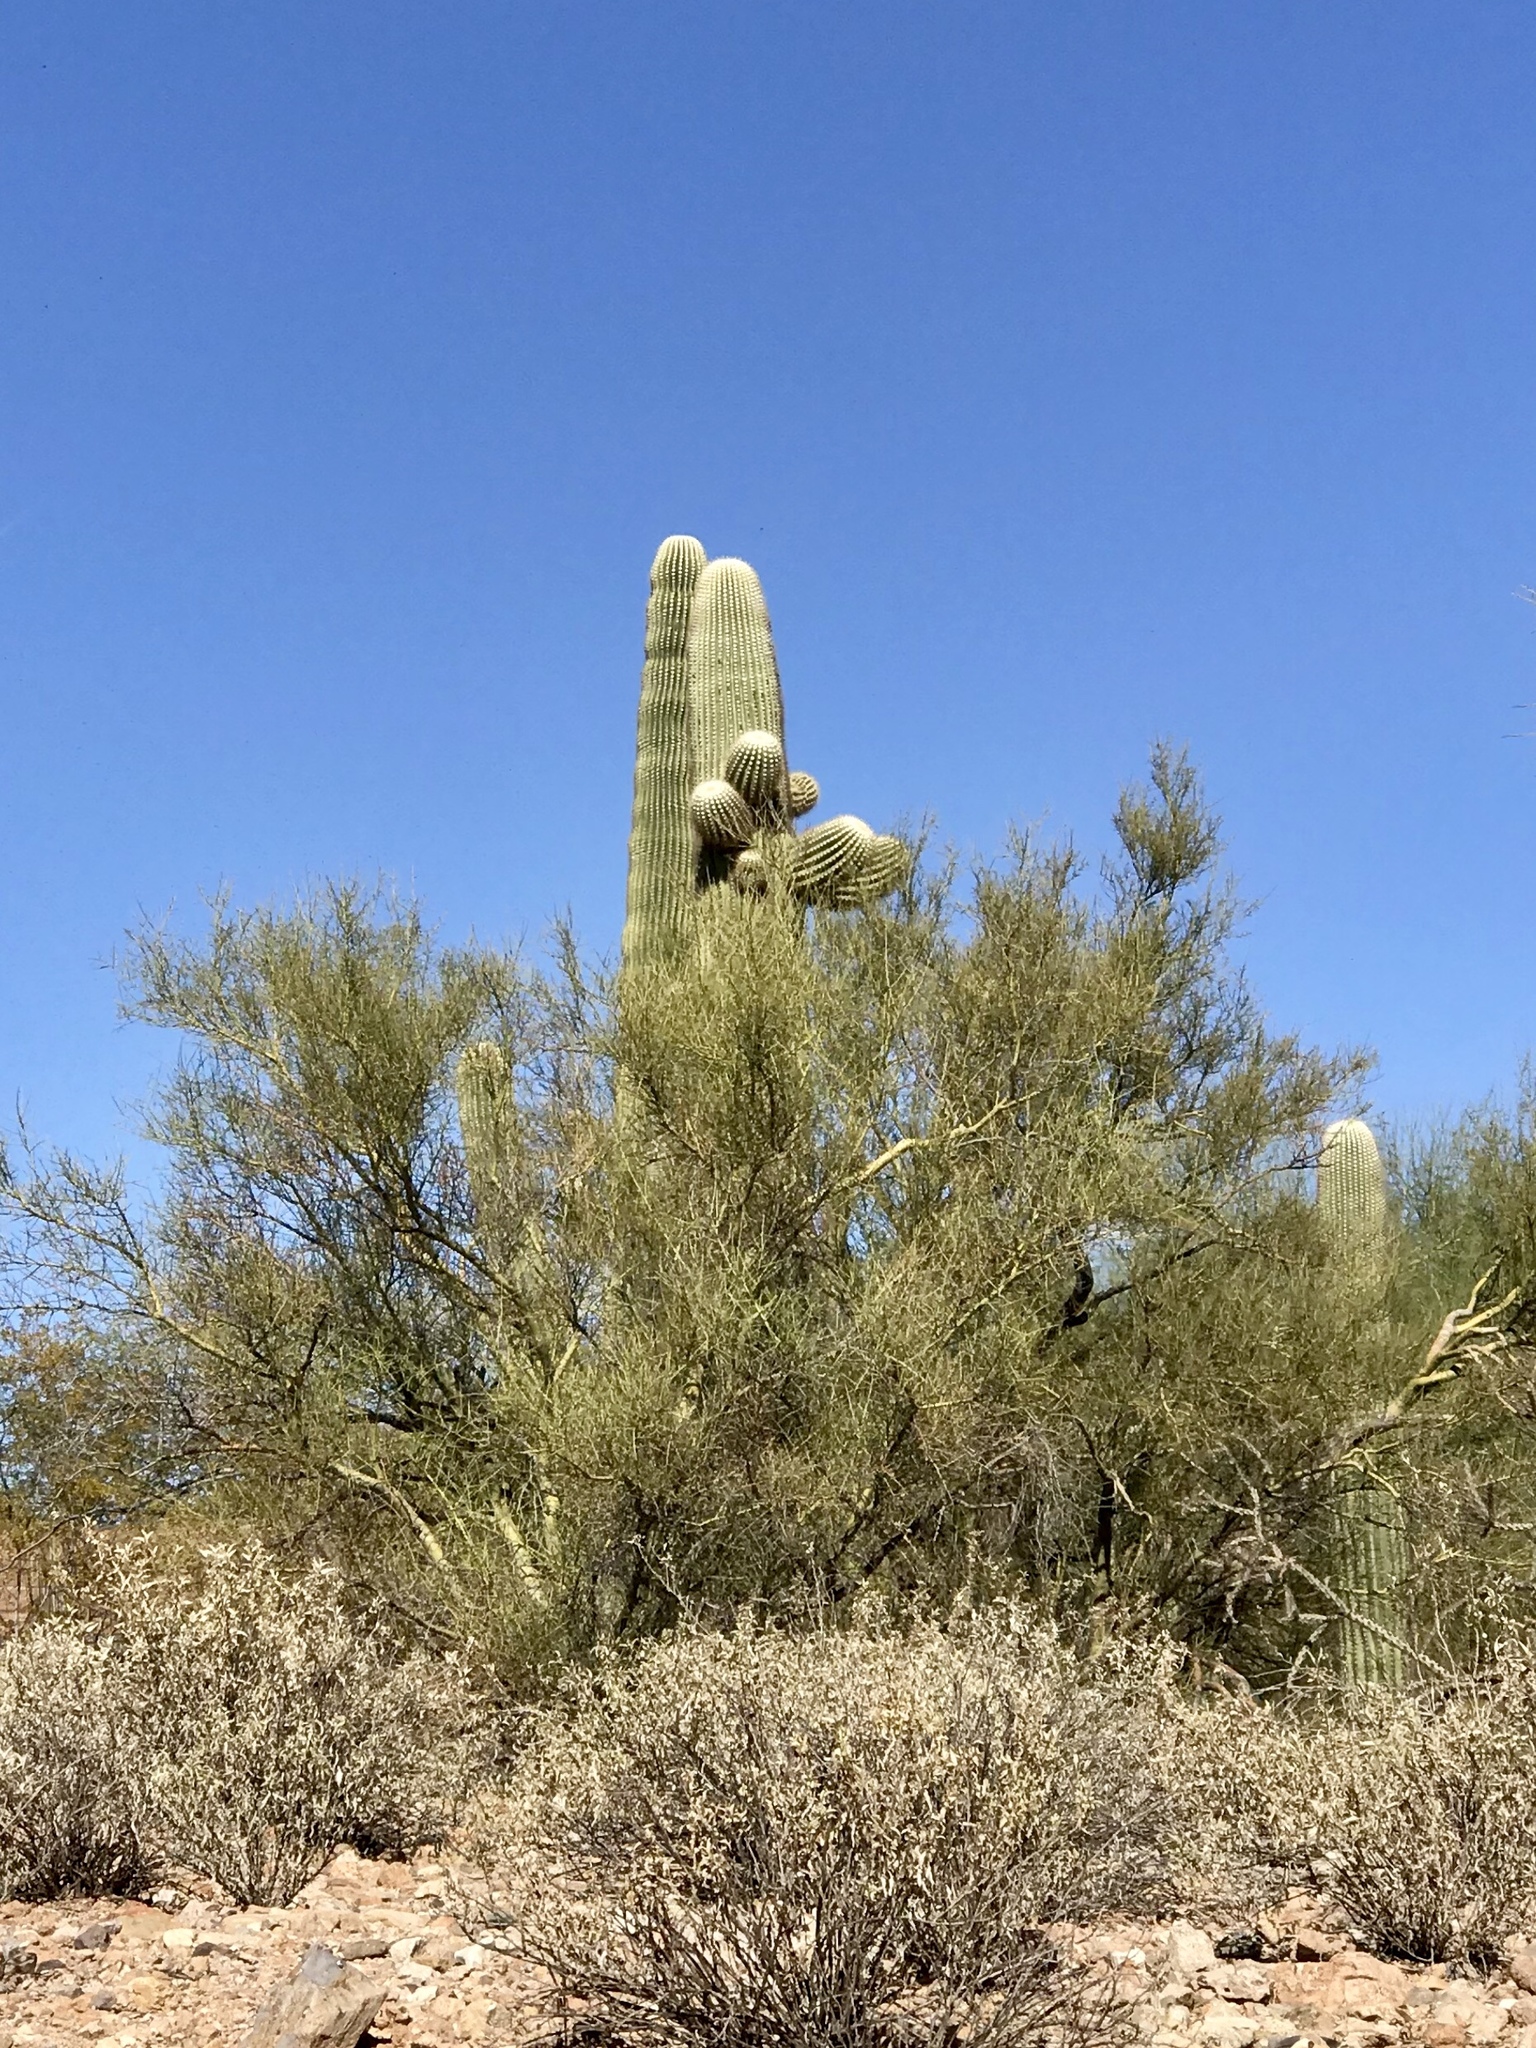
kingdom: Plantae
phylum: Tracheophyta
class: Magnoliopsida
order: Fabales
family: Fabaceae
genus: Parkinsonia
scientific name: Parkinsonia microphylla
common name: Yellow paloverde
